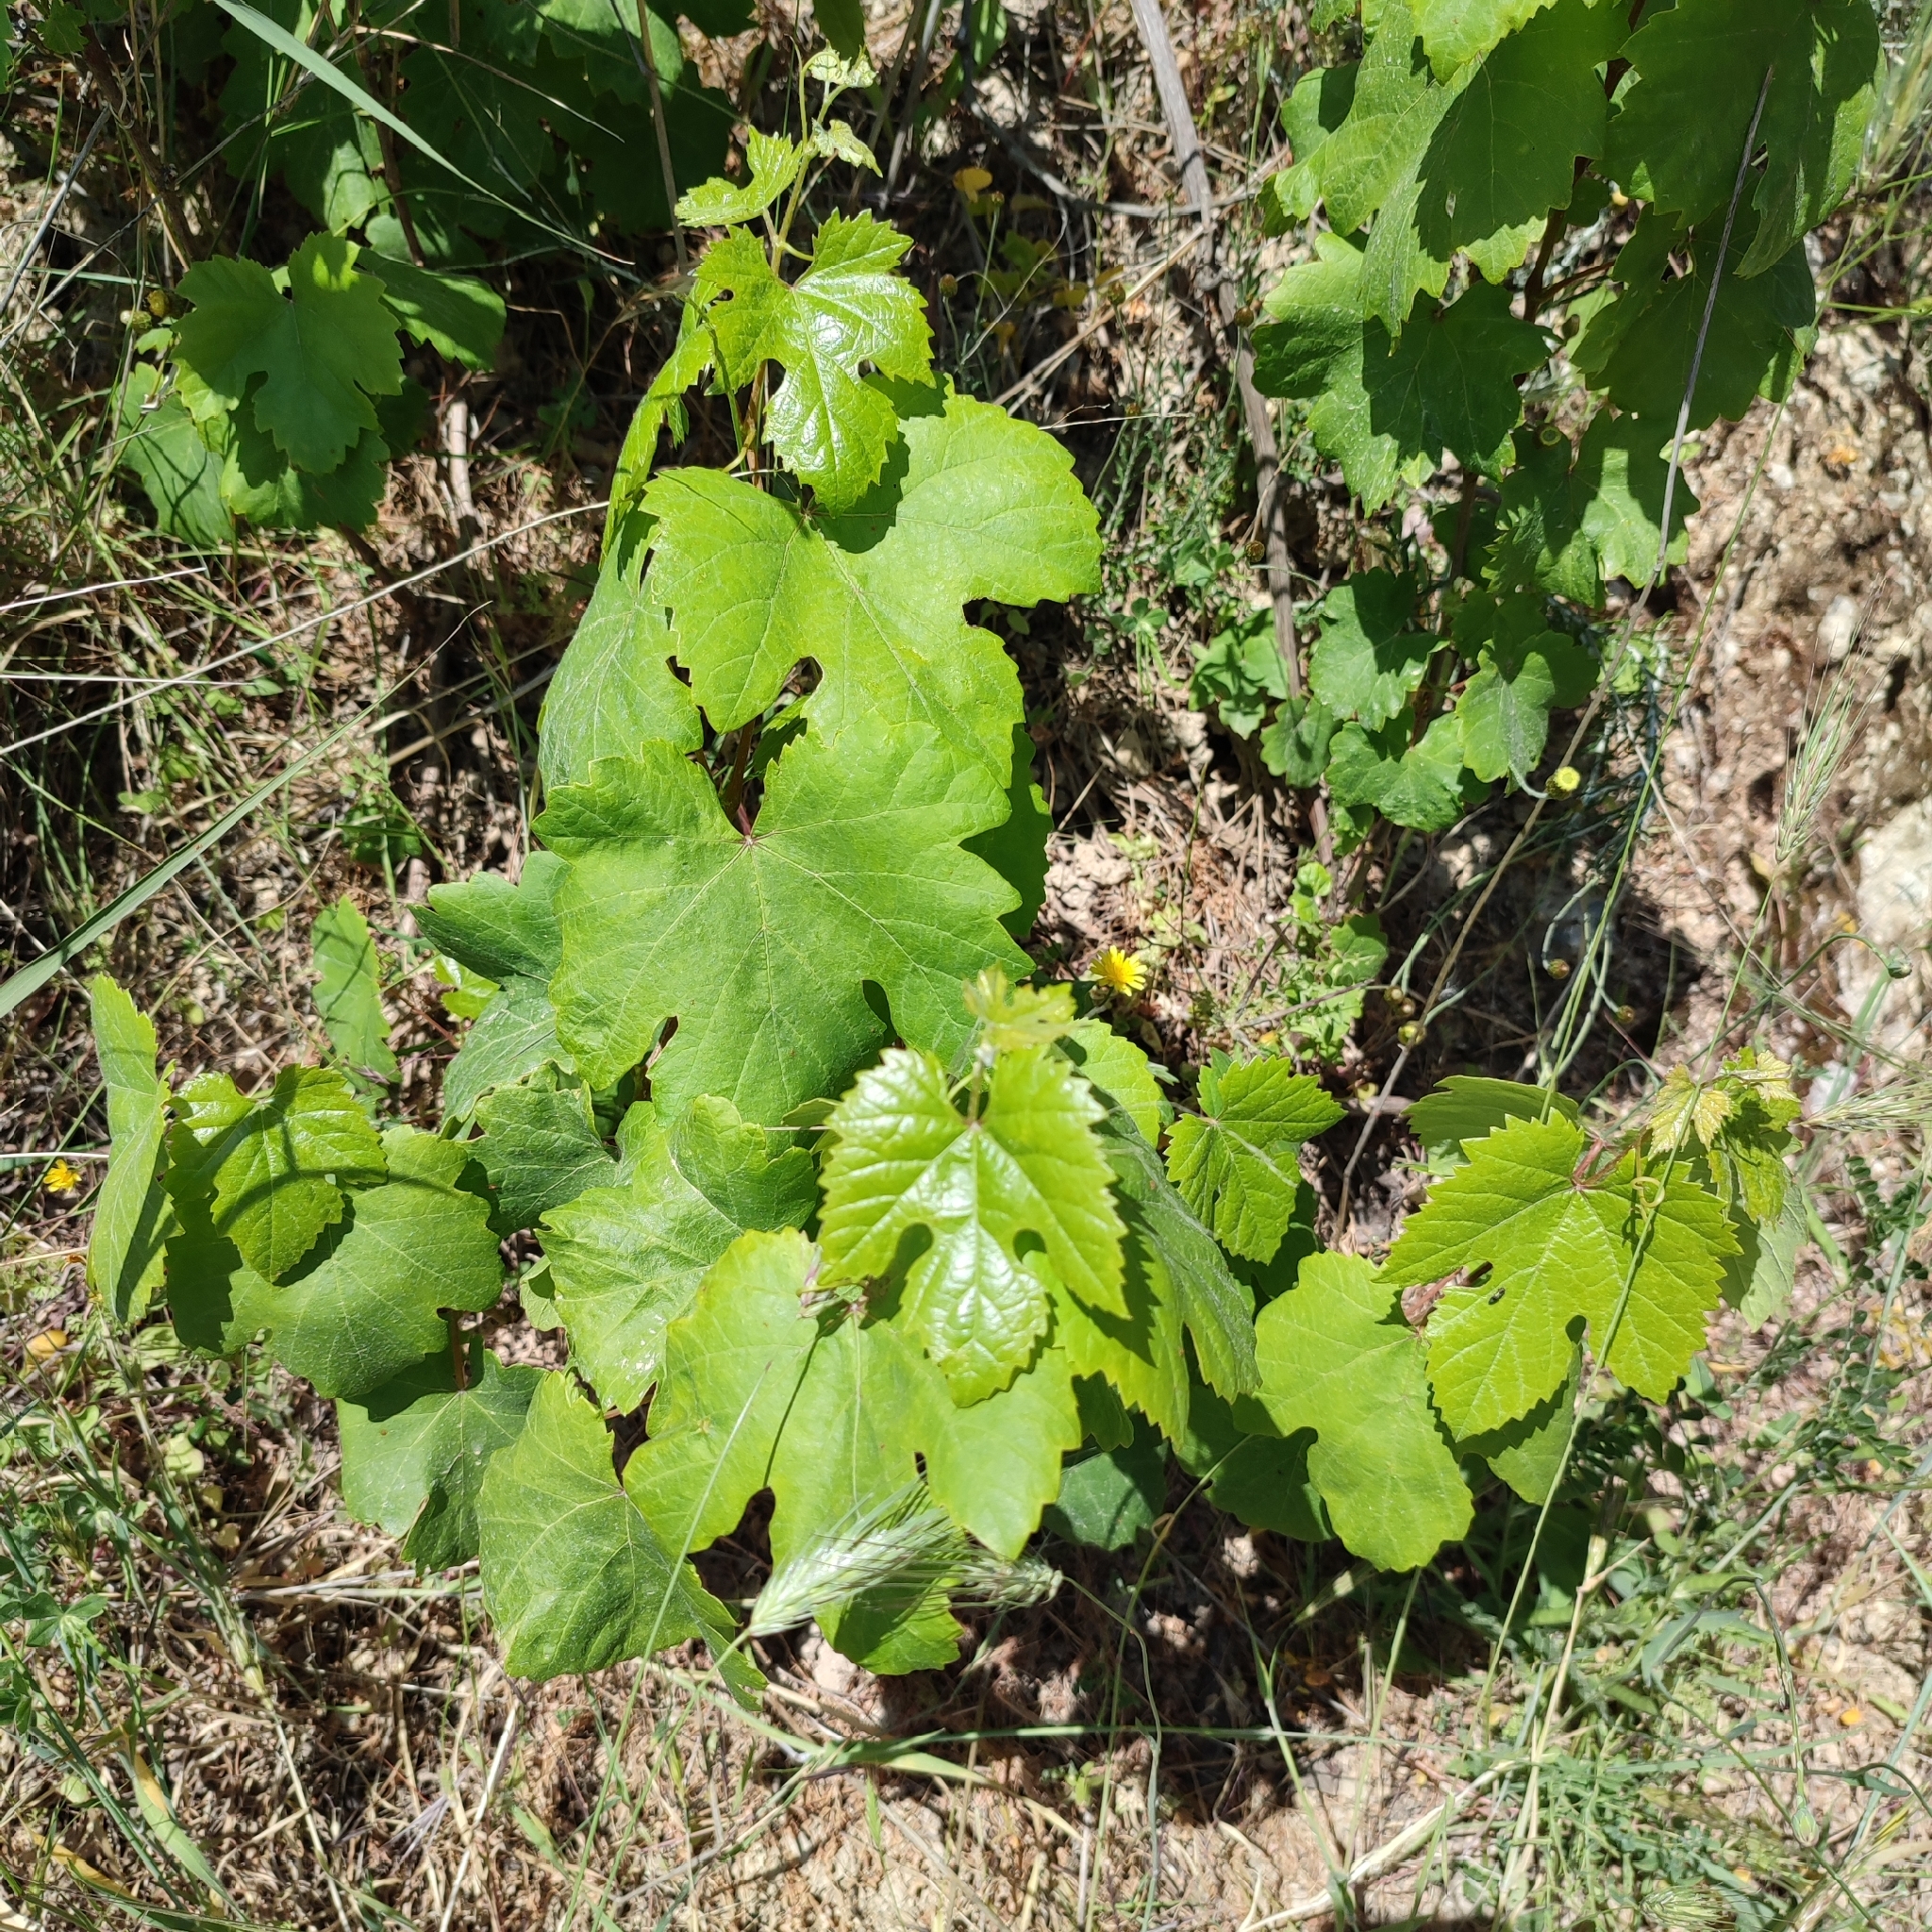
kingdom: Plantae
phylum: Tracheophyta
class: Magnoliopsida
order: Vitales
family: Vitaceae
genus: Vitis
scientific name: Vitis vinifera
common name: Grape-vine
